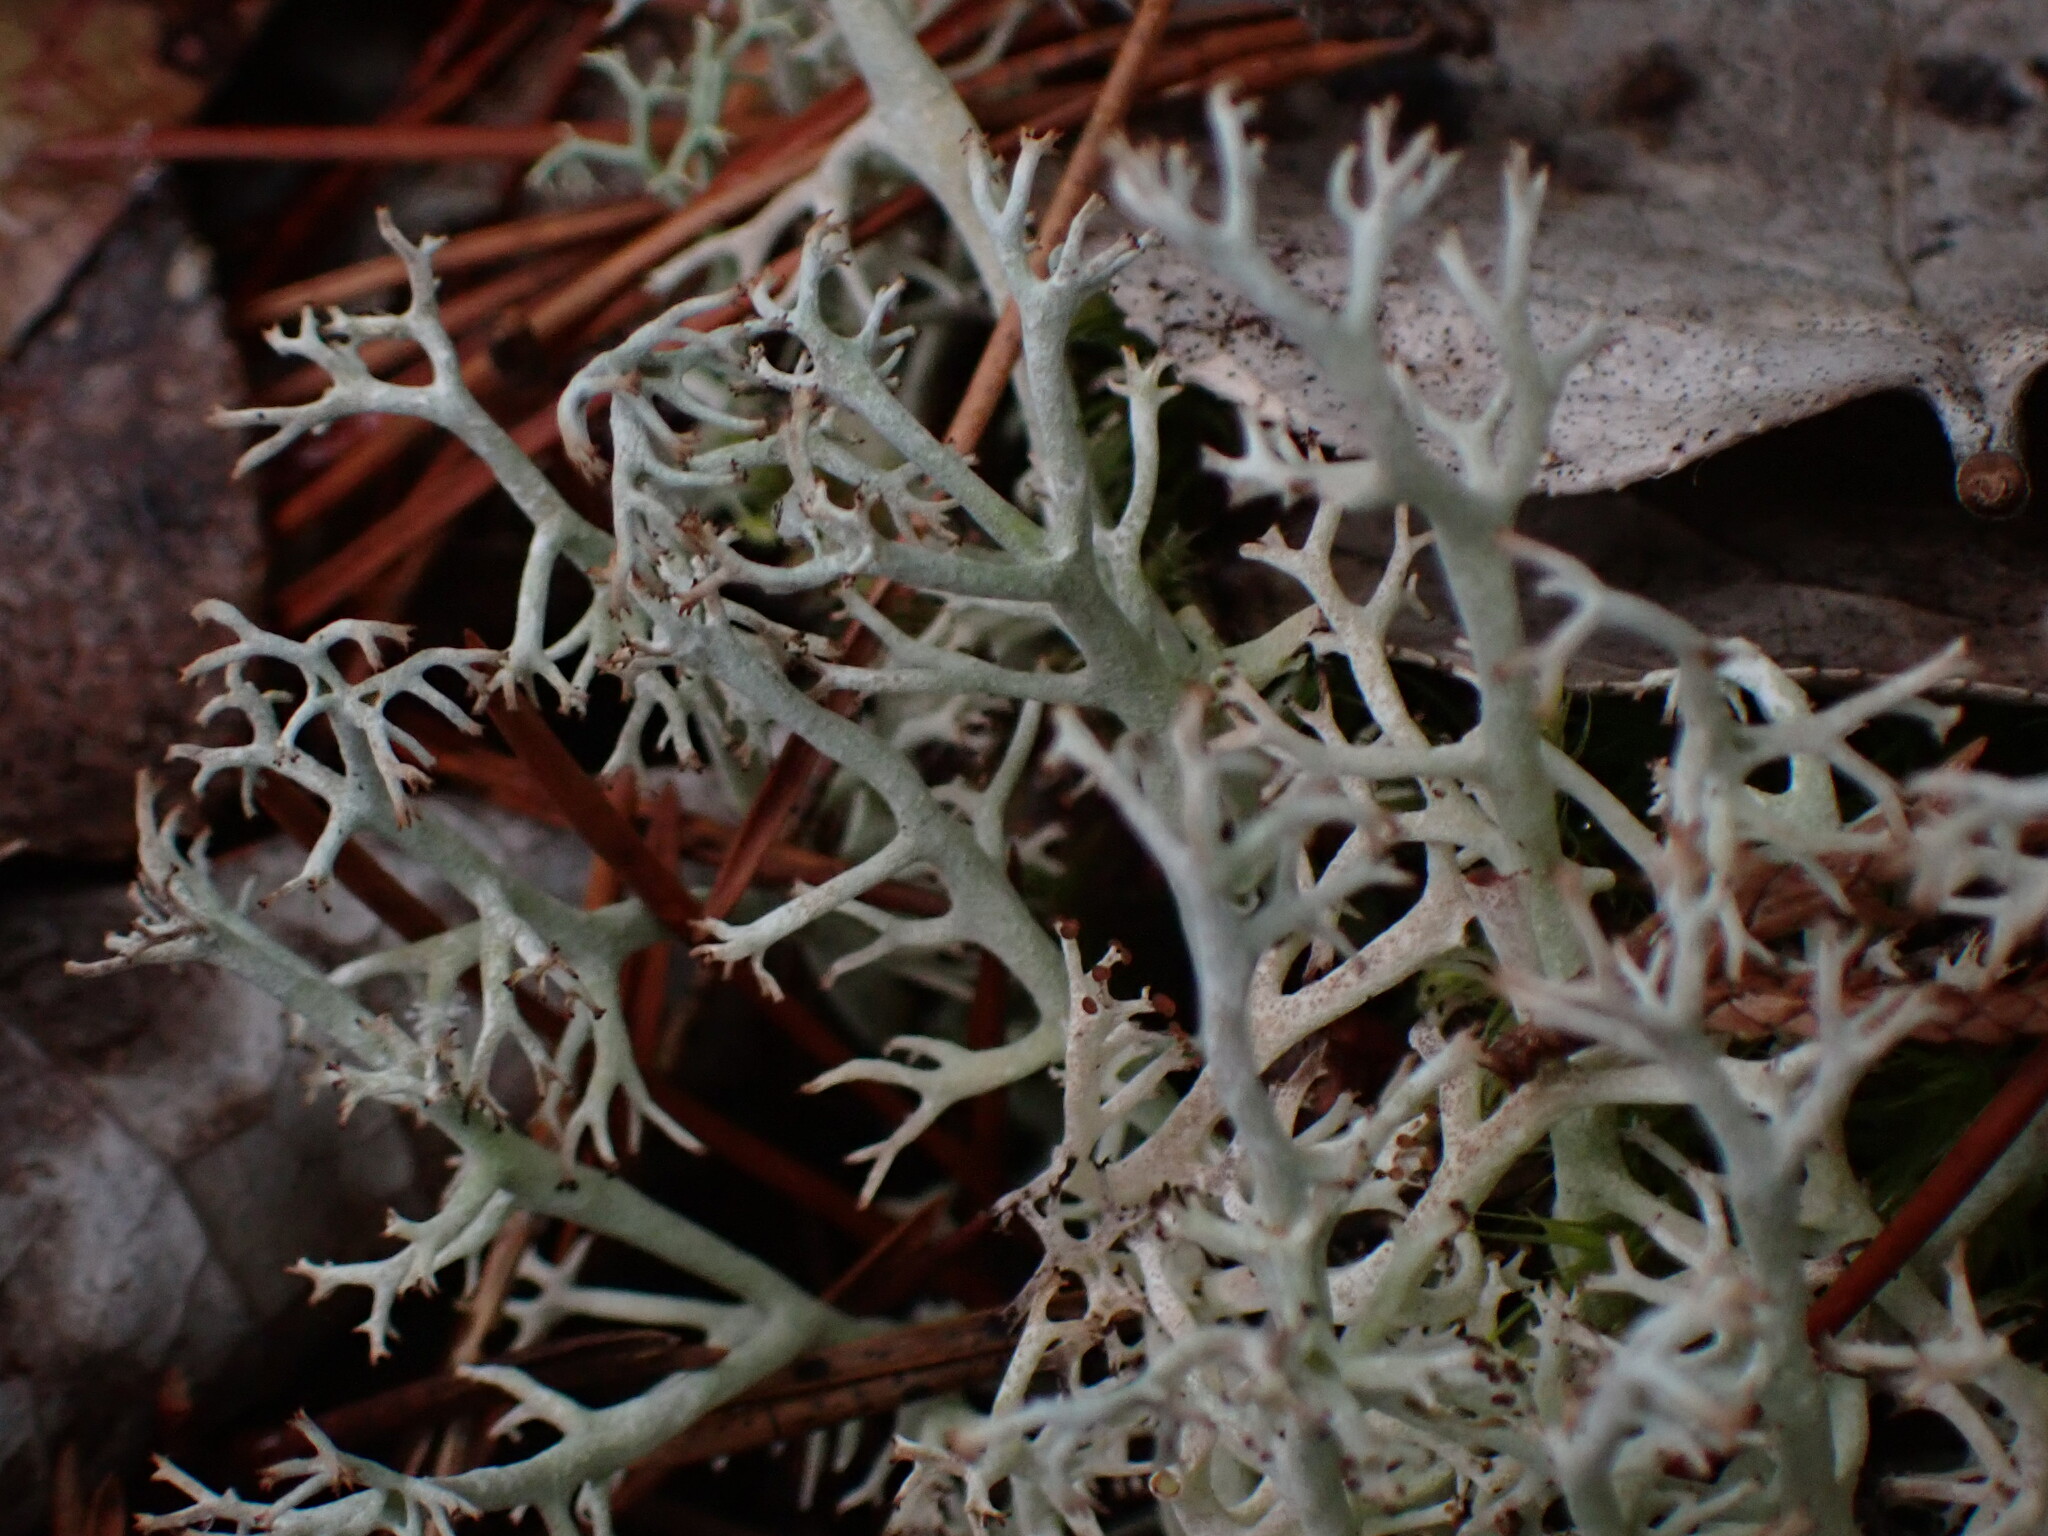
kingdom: Fungi
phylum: Ascomycota
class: Lecanoromycetes
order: Lecanorales
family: Cladoniaceae
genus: Cladonia
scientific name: Cladonia rangiferina
